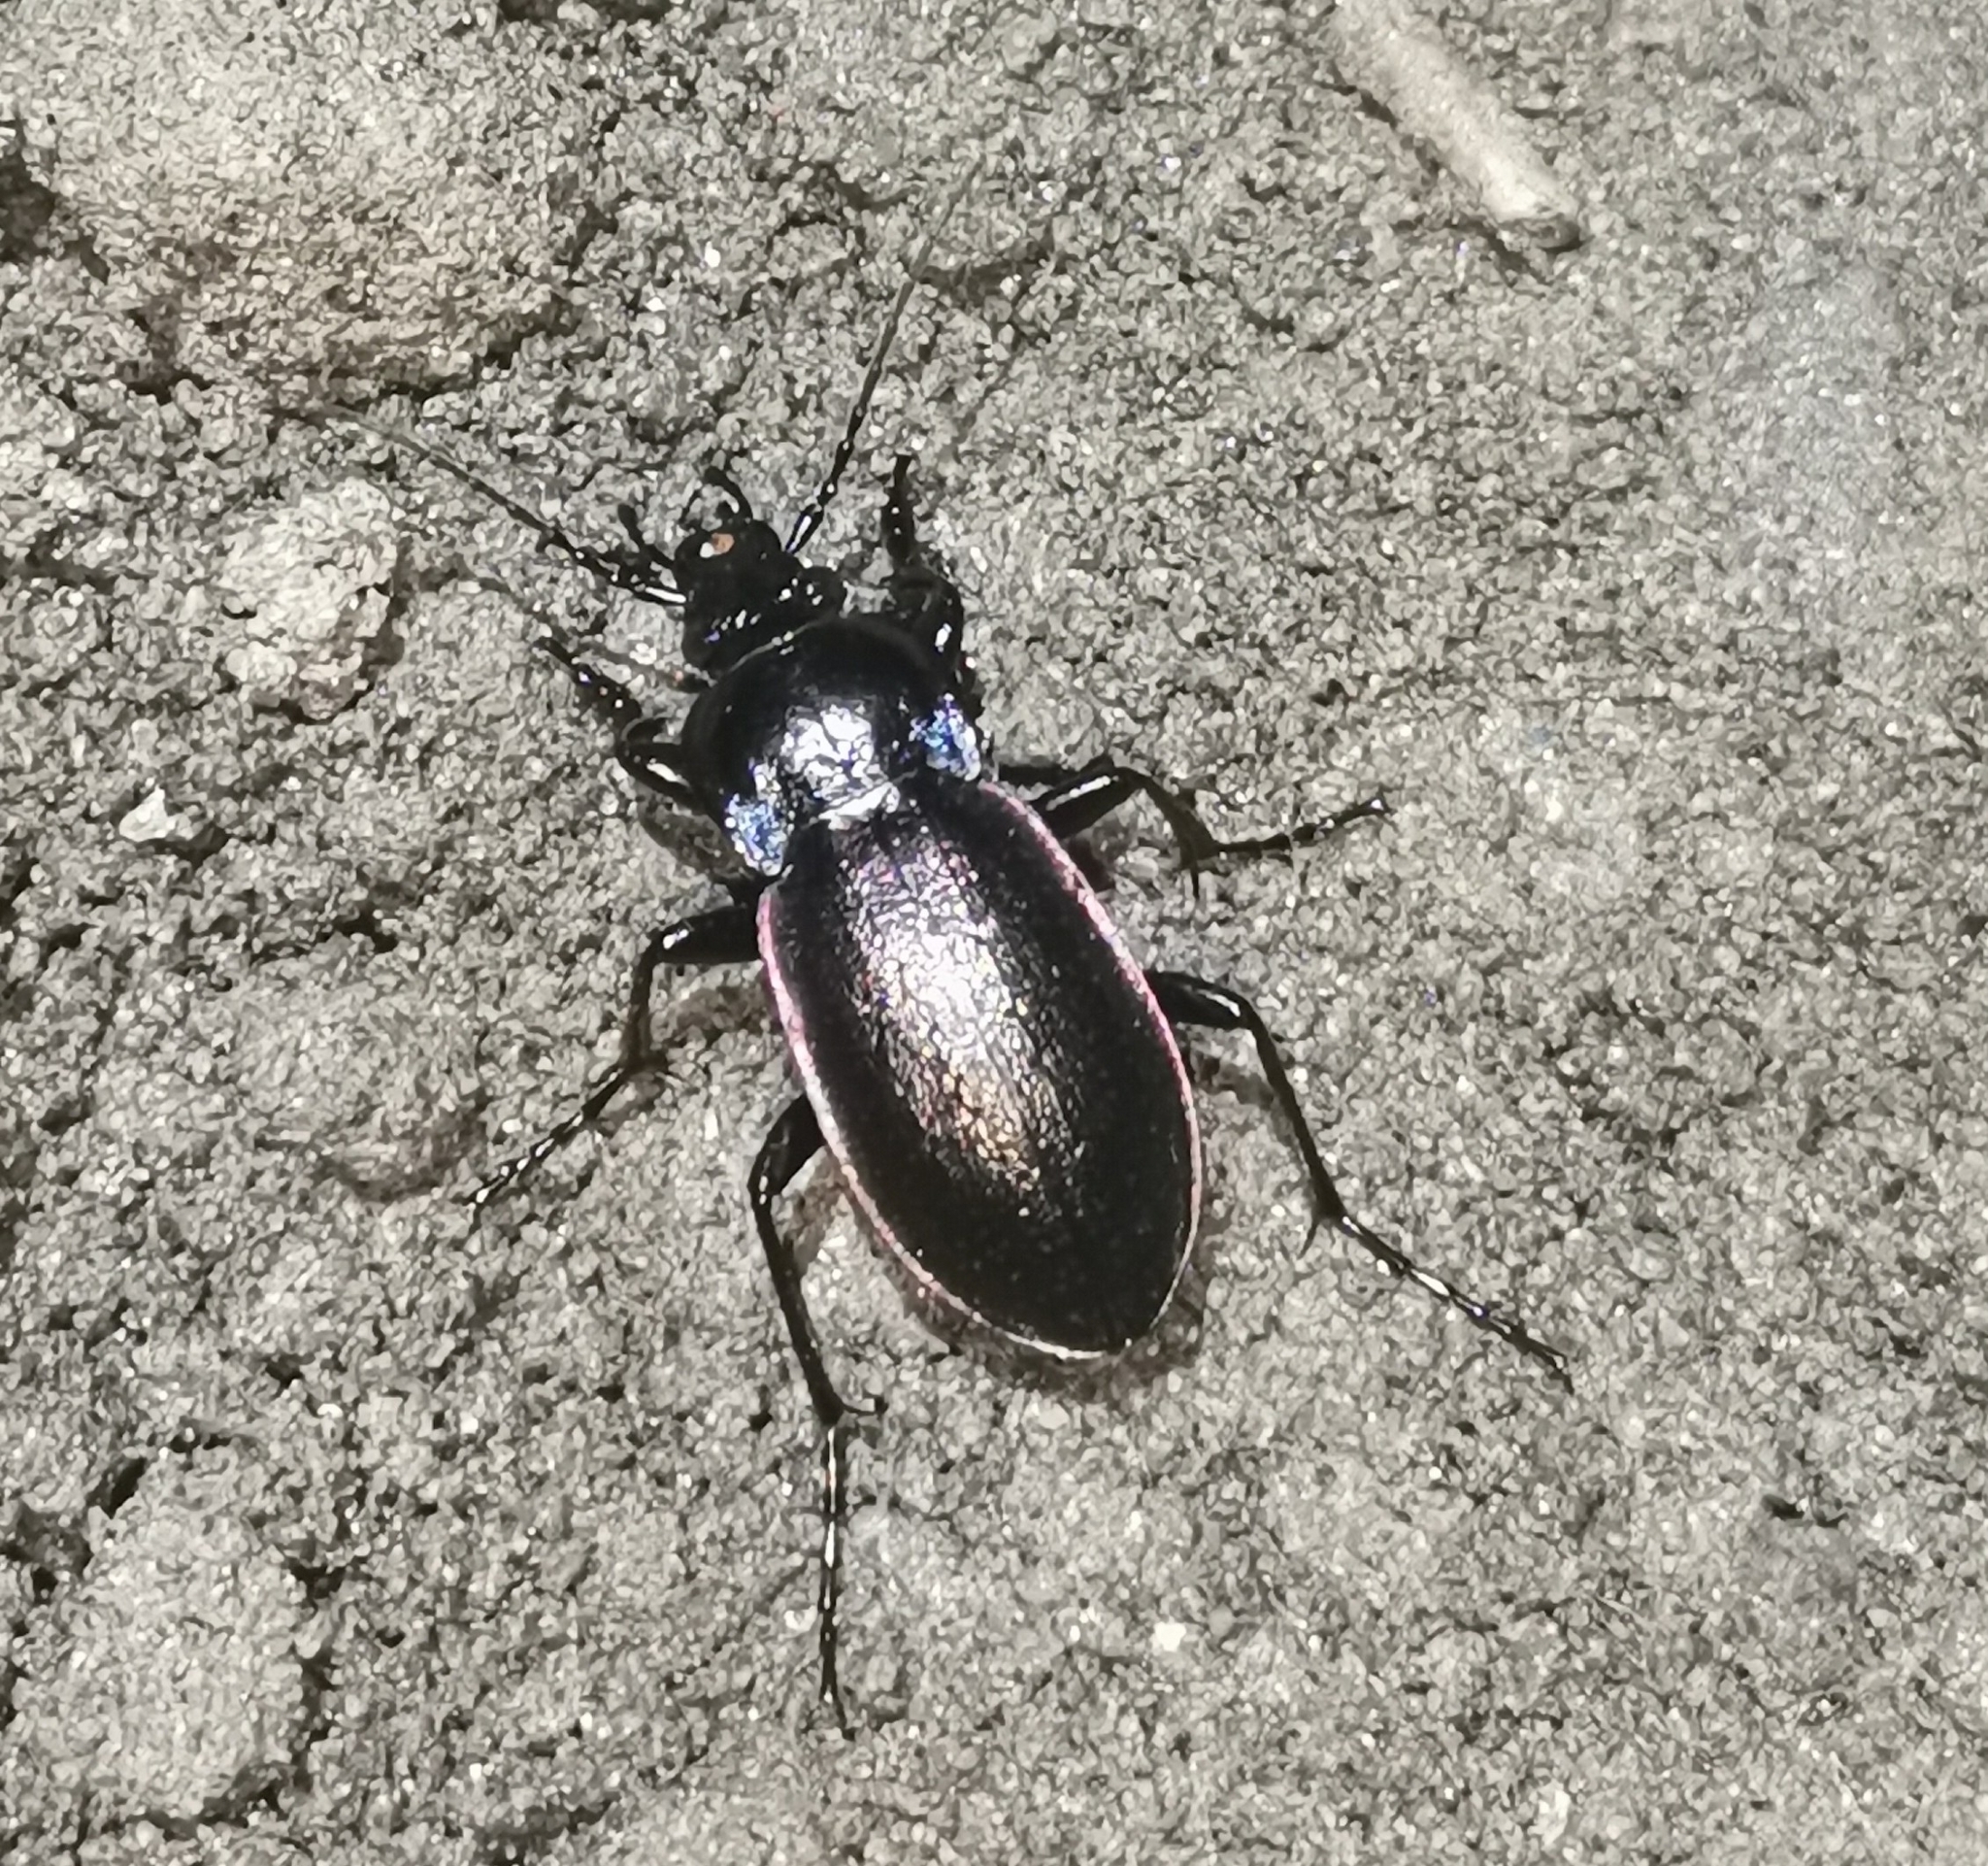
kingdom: Animalia
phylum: Arthropoda
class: Insecta
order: Coleoptera
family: Carabidae
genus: Carabus
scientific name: Carabus nemoralis
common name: European ground beetle
